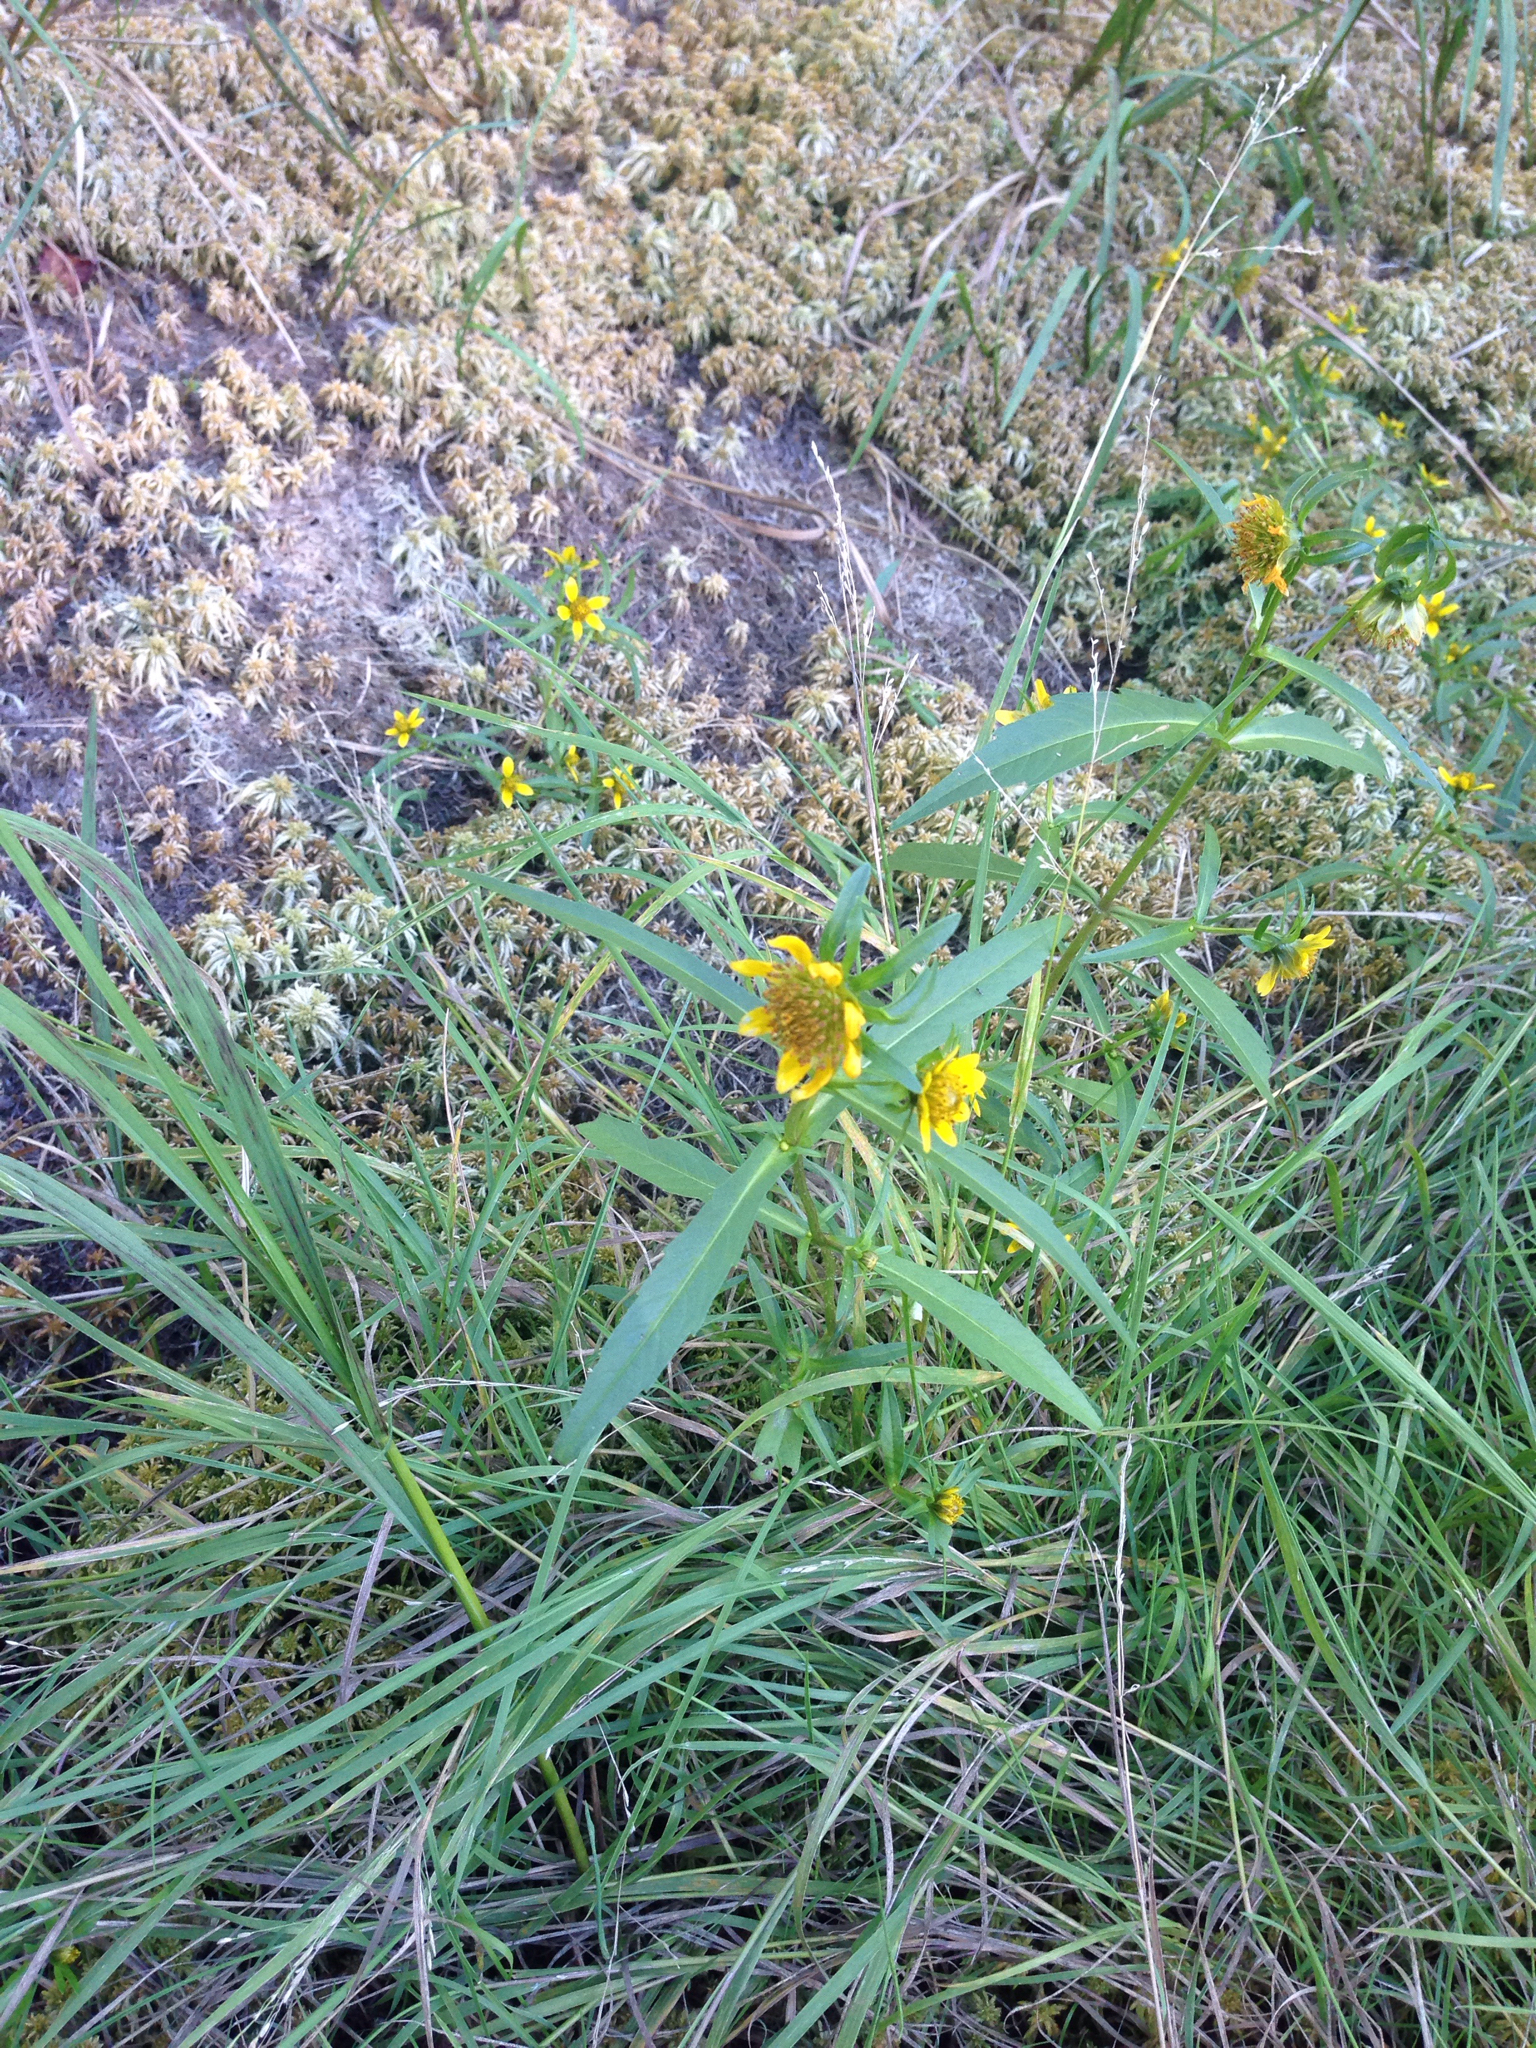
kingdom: Plantae
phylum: Tracheophyta
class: Magnoliopsida
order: Asterales
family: Asteraceae
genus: Bidens
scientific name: Bidens cernua
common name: Nodding bur-marigold
